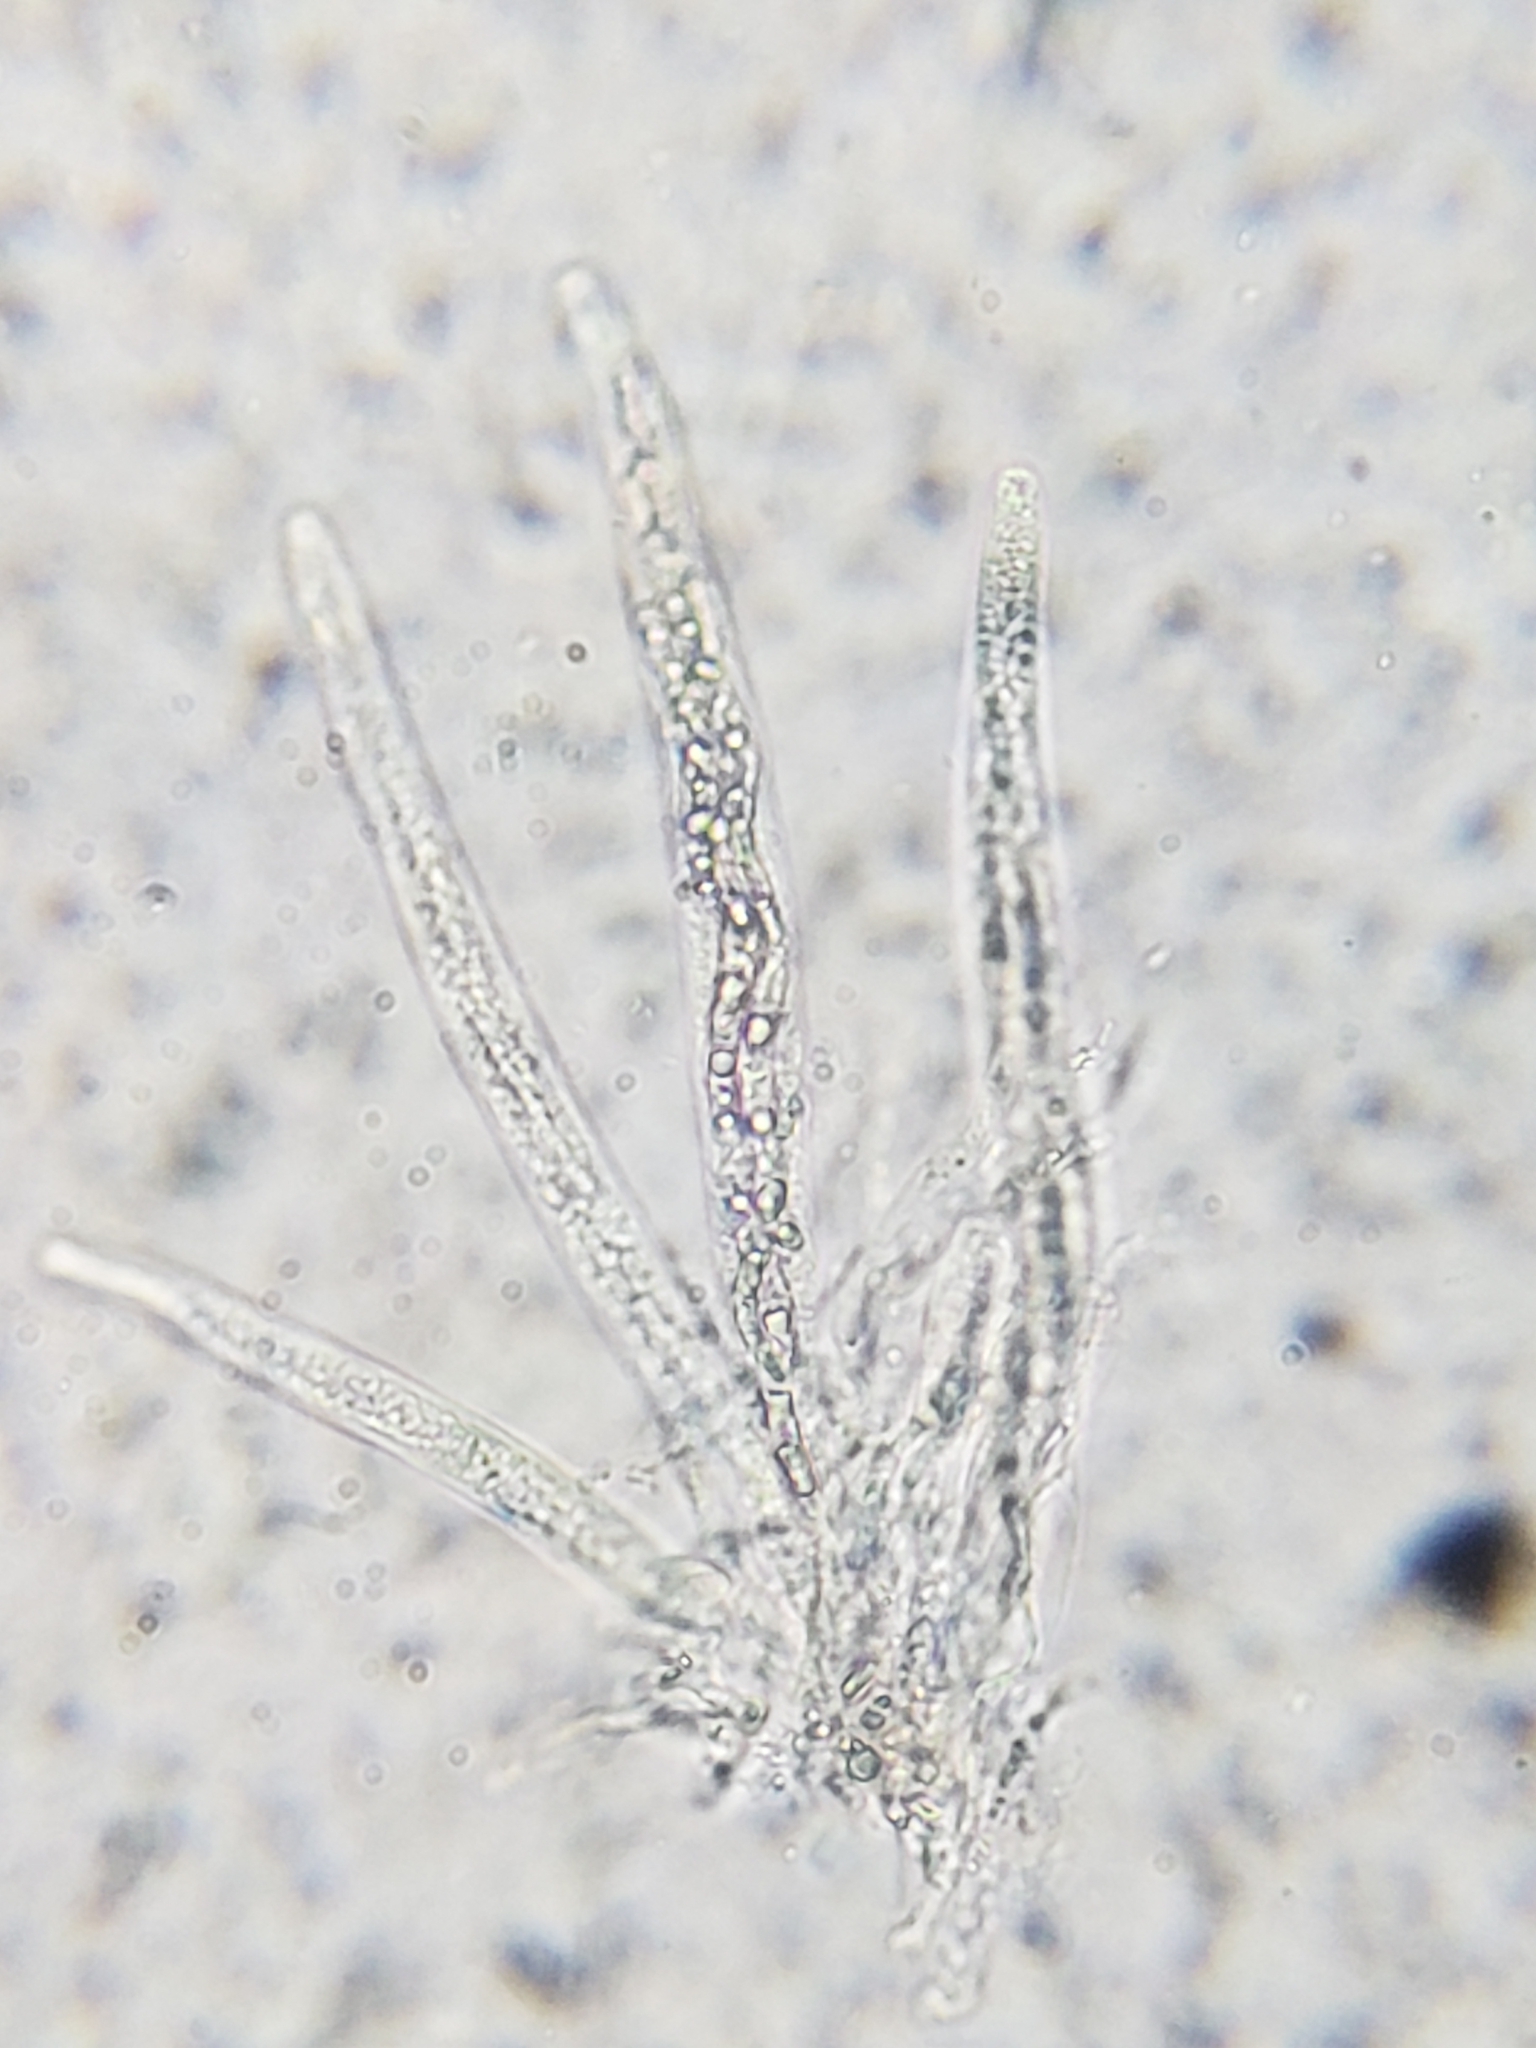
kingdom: Fungi
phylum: Ascomycota
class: Sordariomycetes
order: Sordariales
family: Lasiosphaeriaceae
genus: Lasiosphaeria
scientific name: Lasiosphaeria ovina
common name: Woolly woodwart
